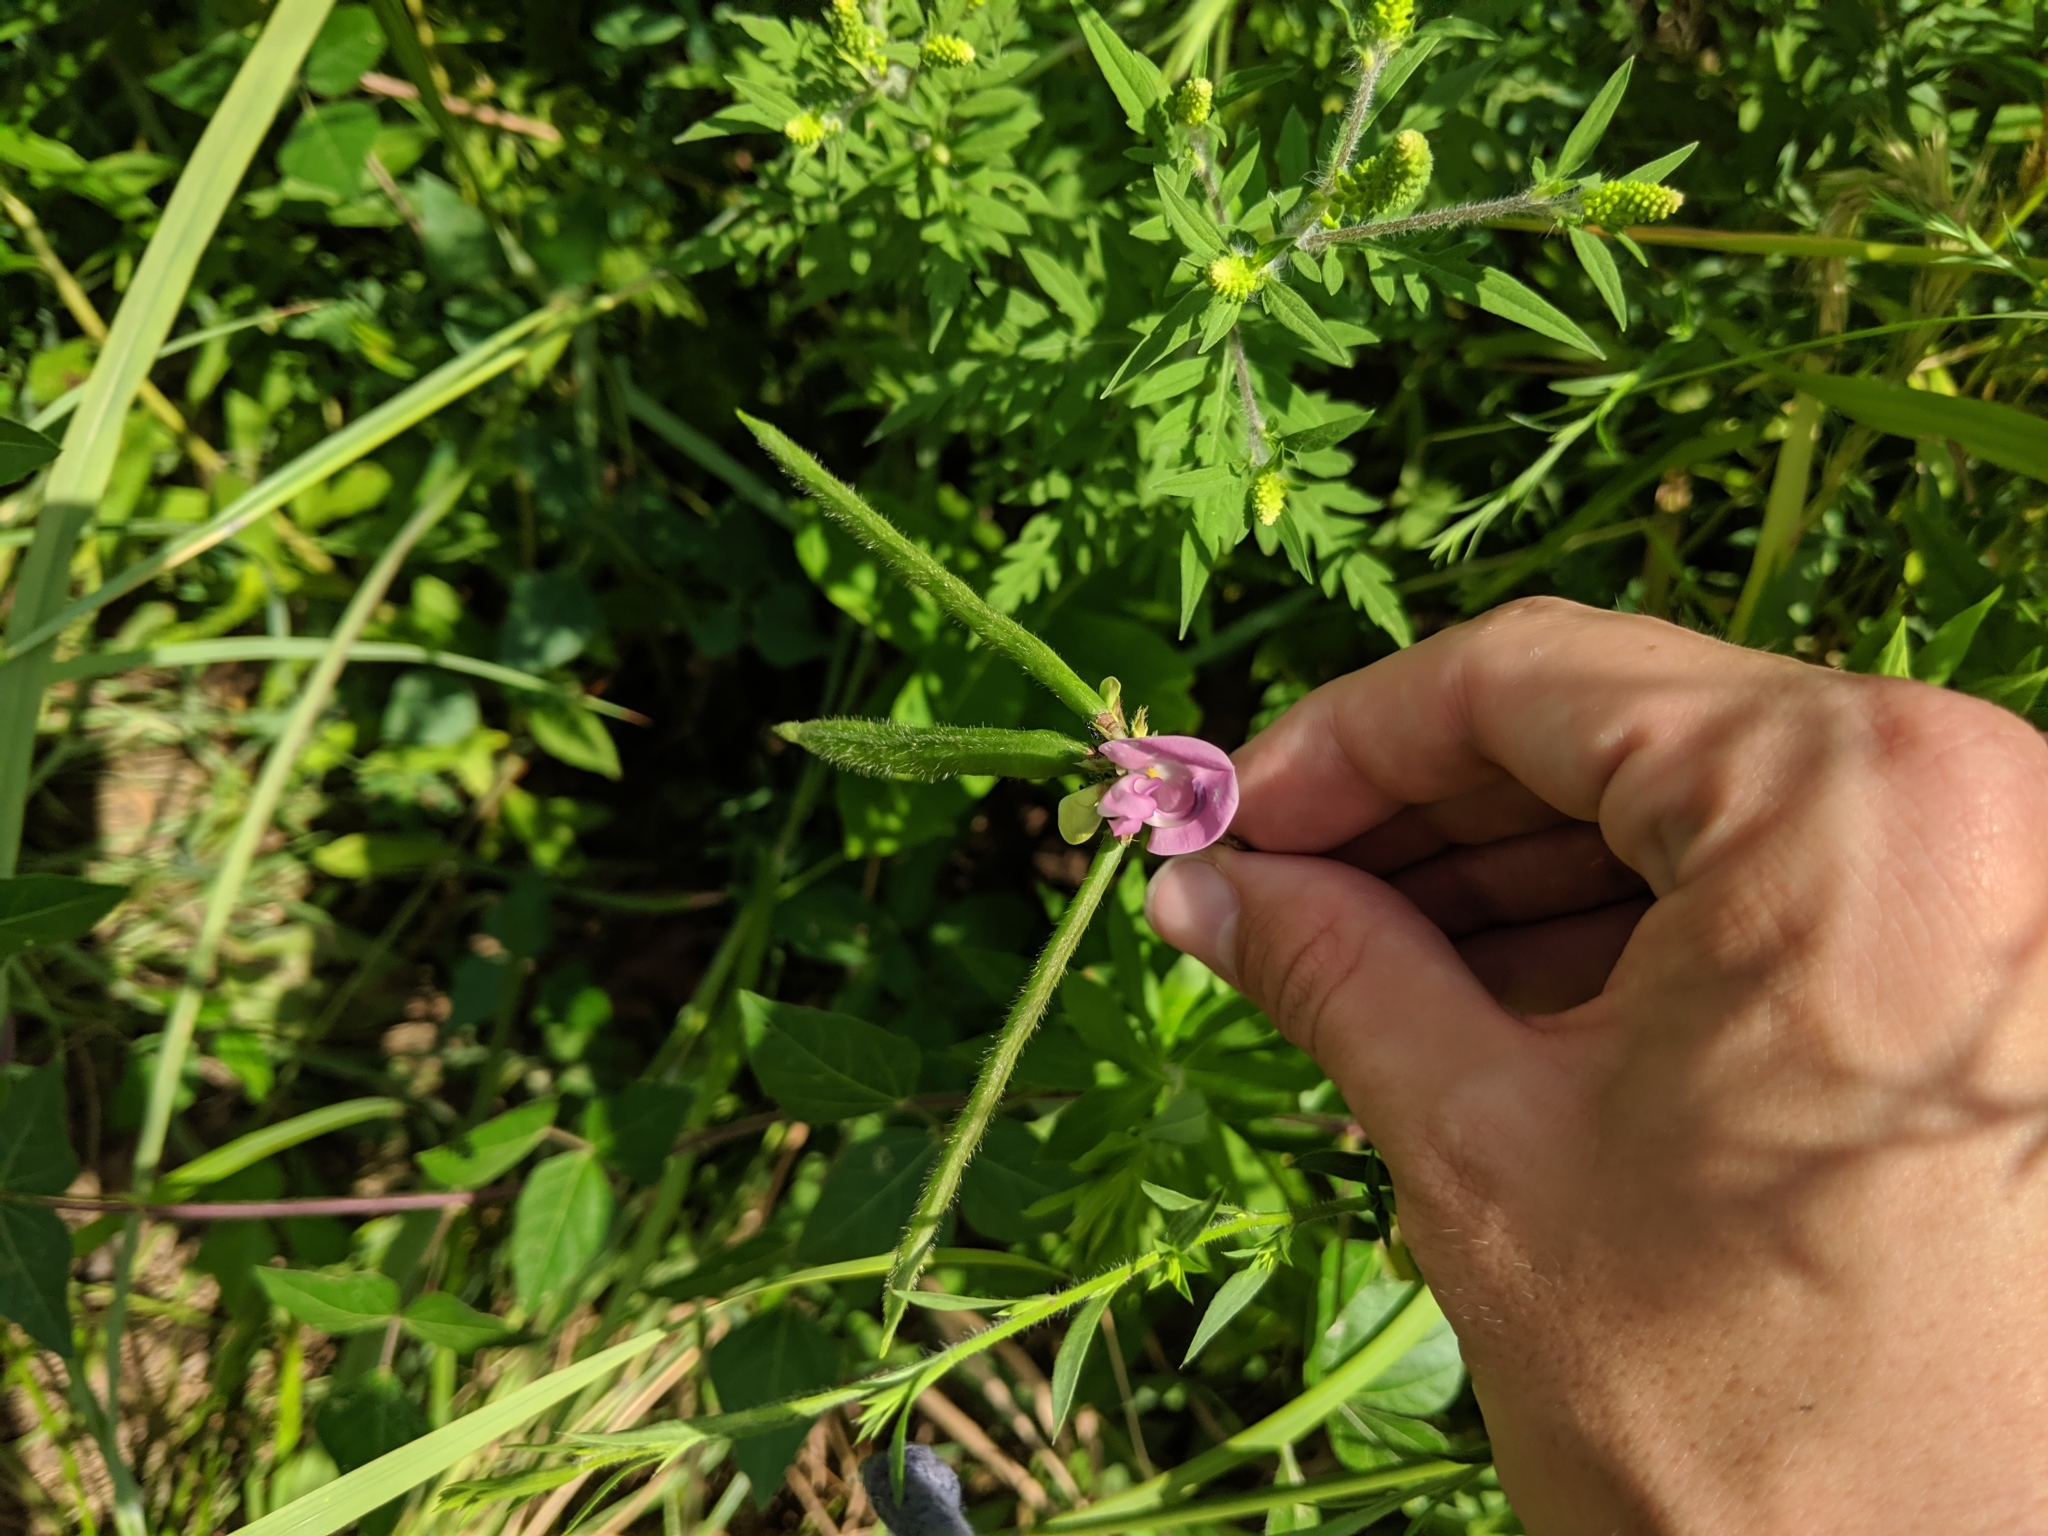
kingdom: Plantae
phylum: Tracheophyta
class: Magnoliopsida
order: Fabales
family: Fabaceae
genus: Strophostyles
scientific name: Strophostyles helvola
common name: Trailing wild bean
